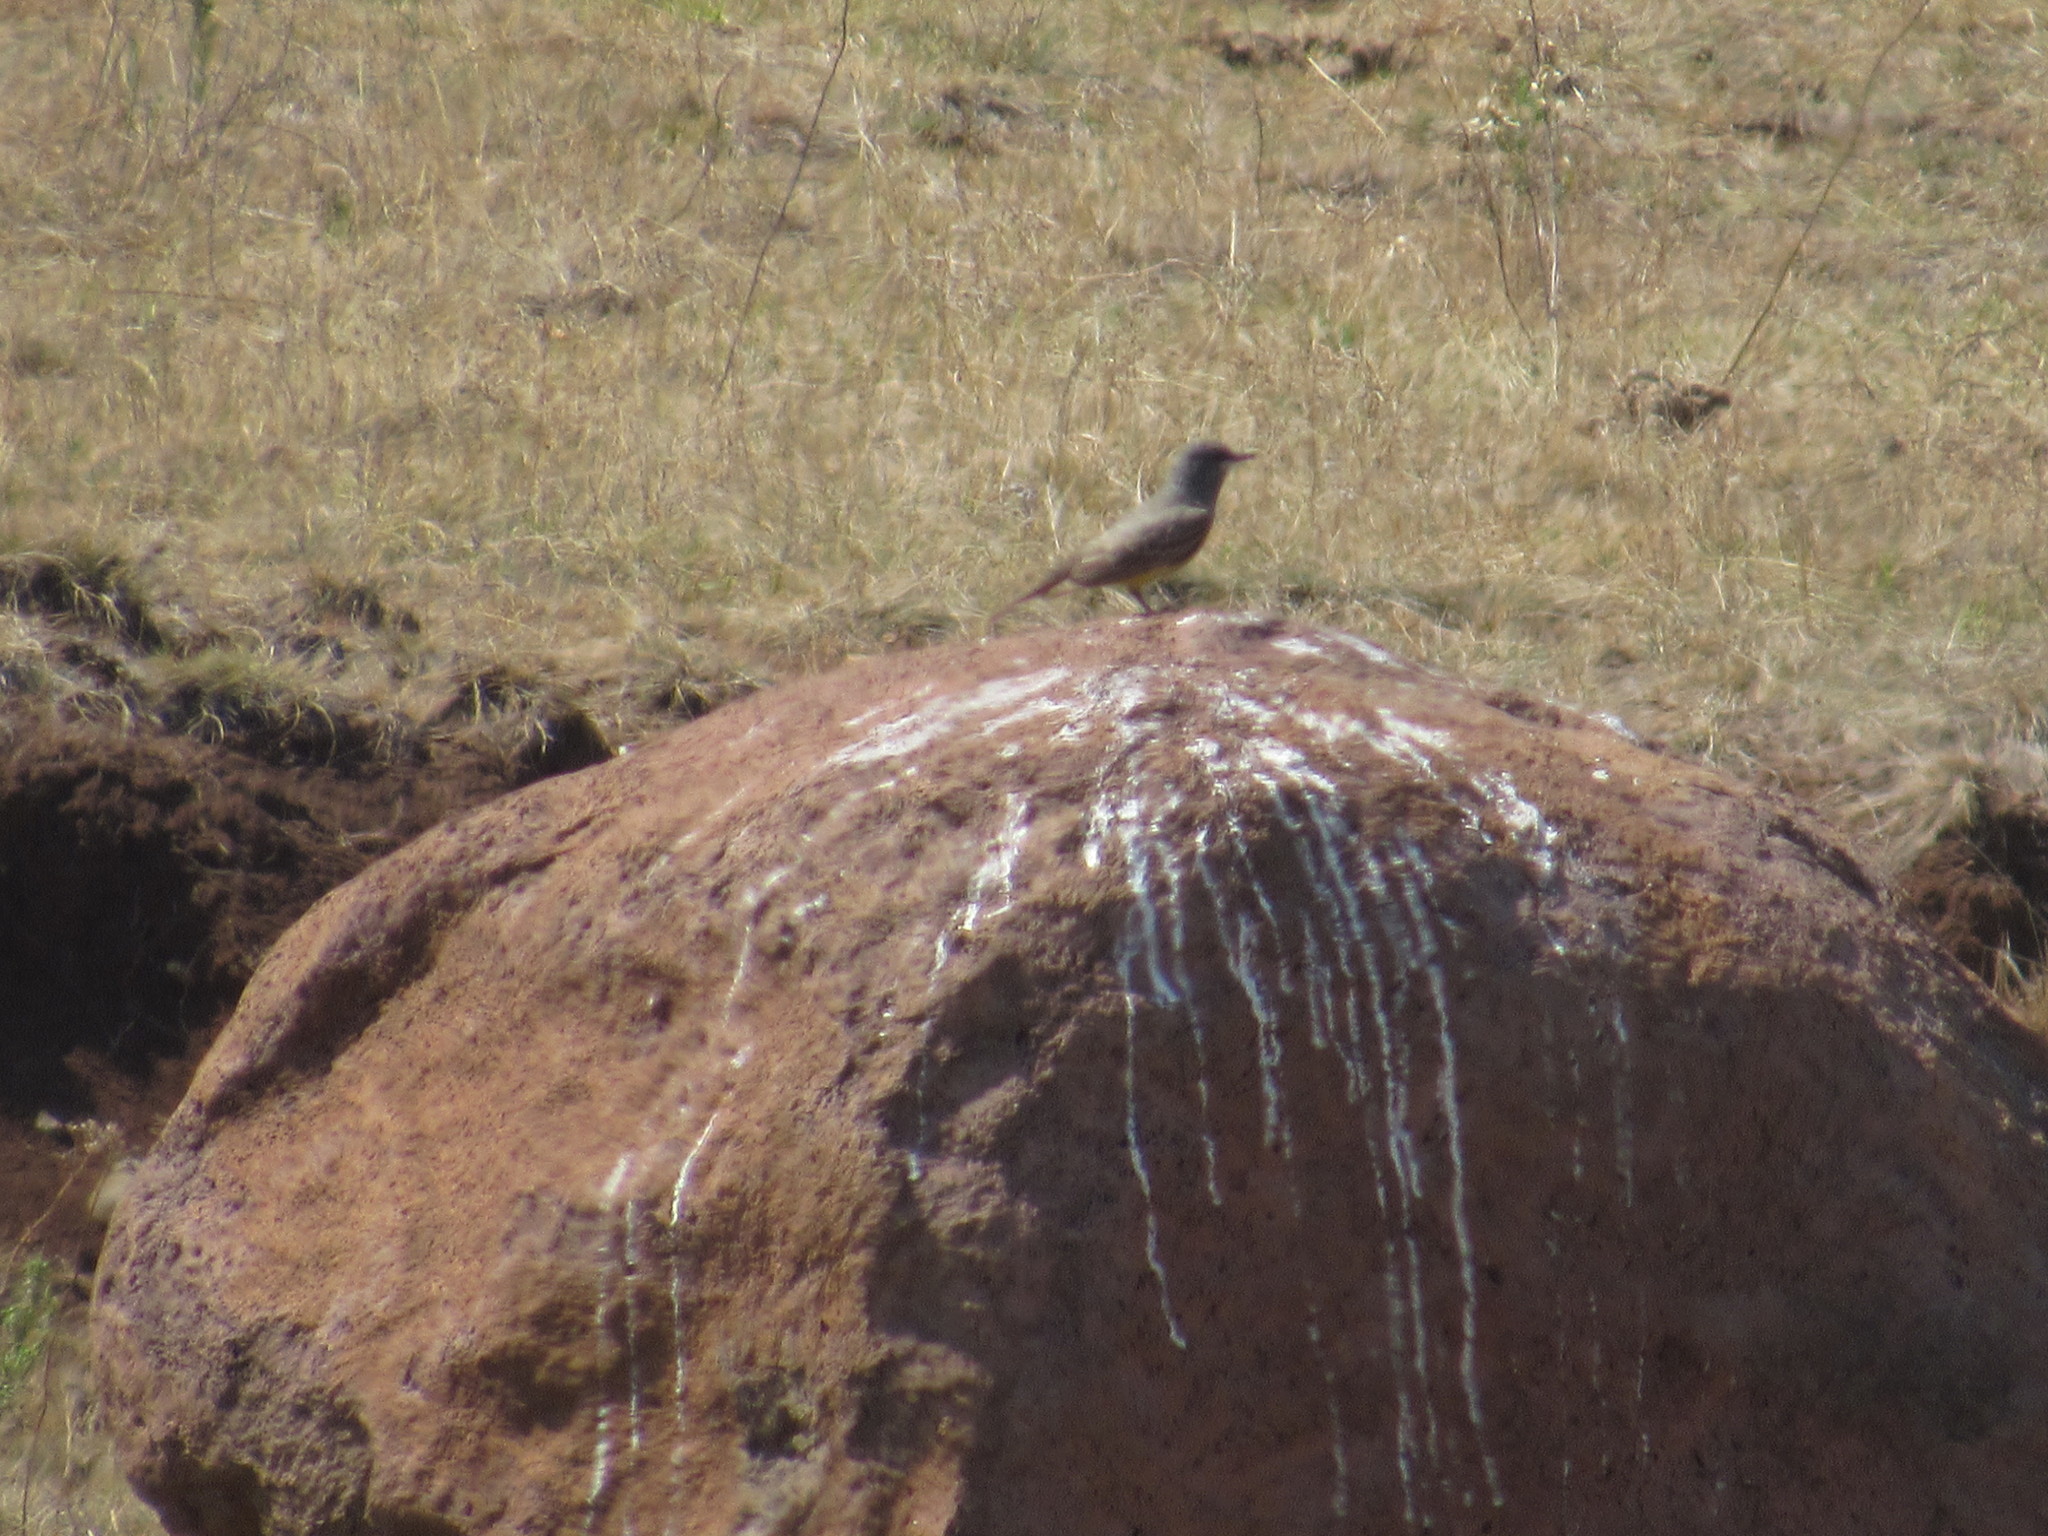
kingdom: Animalia
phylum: Chordata
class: Aves
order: Passeriformes
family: Tyrannidae
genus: Tyrannus
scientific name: Tyrannus vociferans
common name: Cassin's kingbird
